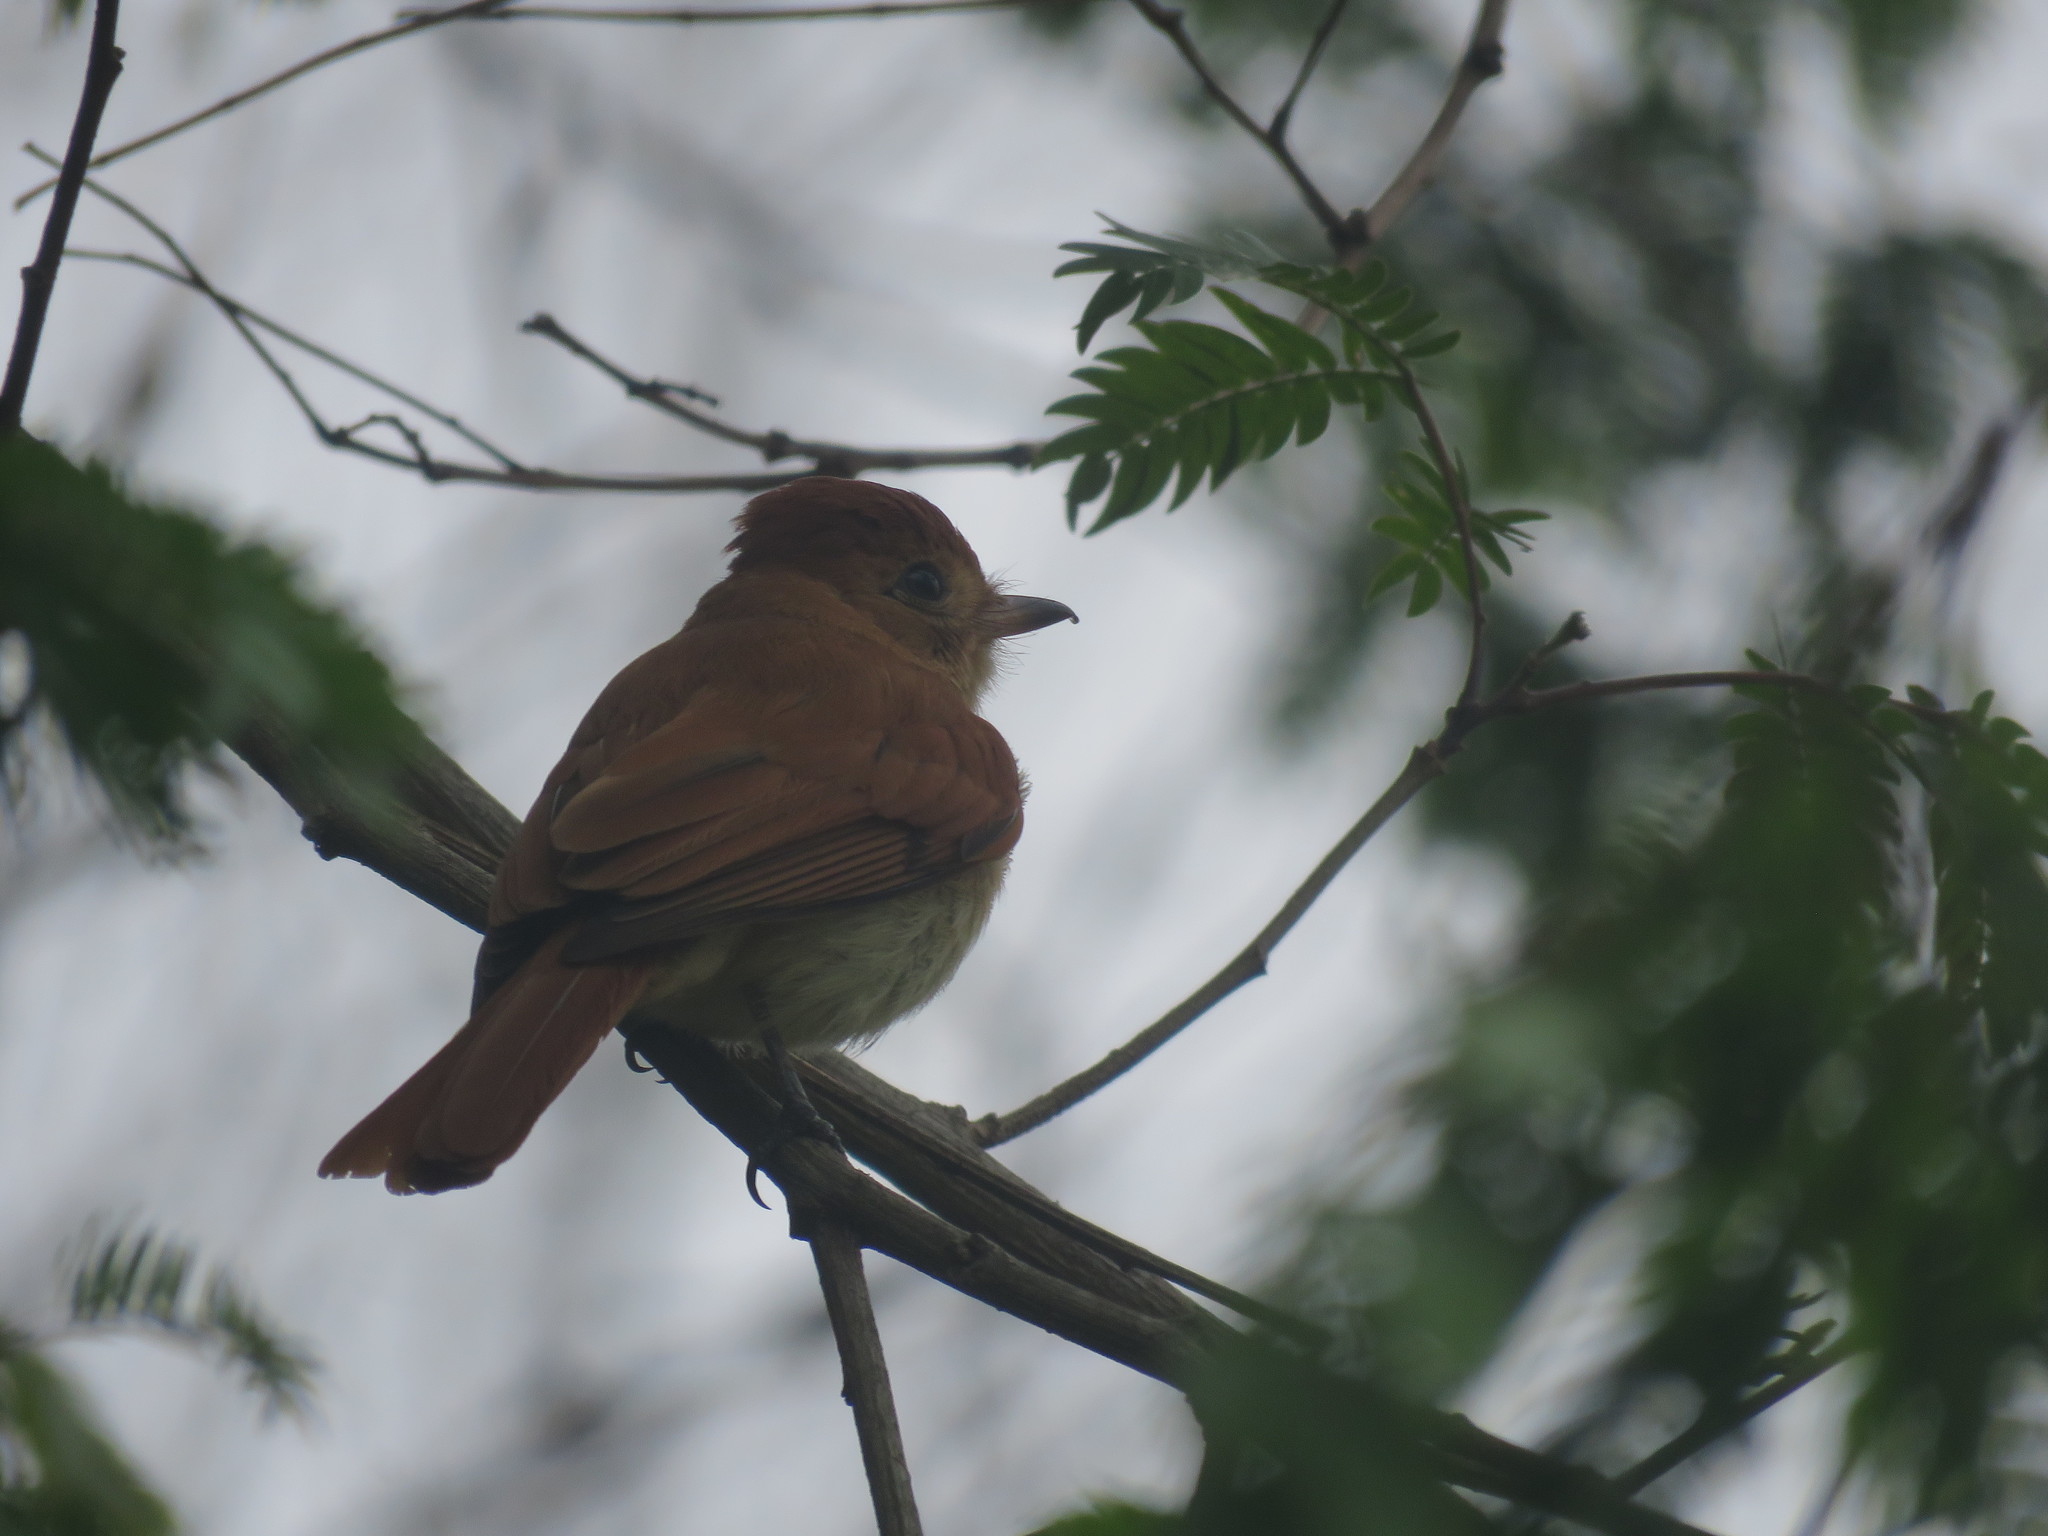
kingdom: Animalia
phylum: Chordata
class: Aves
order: Passeriformes
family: Tyrannidae
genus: Casiornis
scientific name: Casiornis rufus
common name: Rufous casiornis
